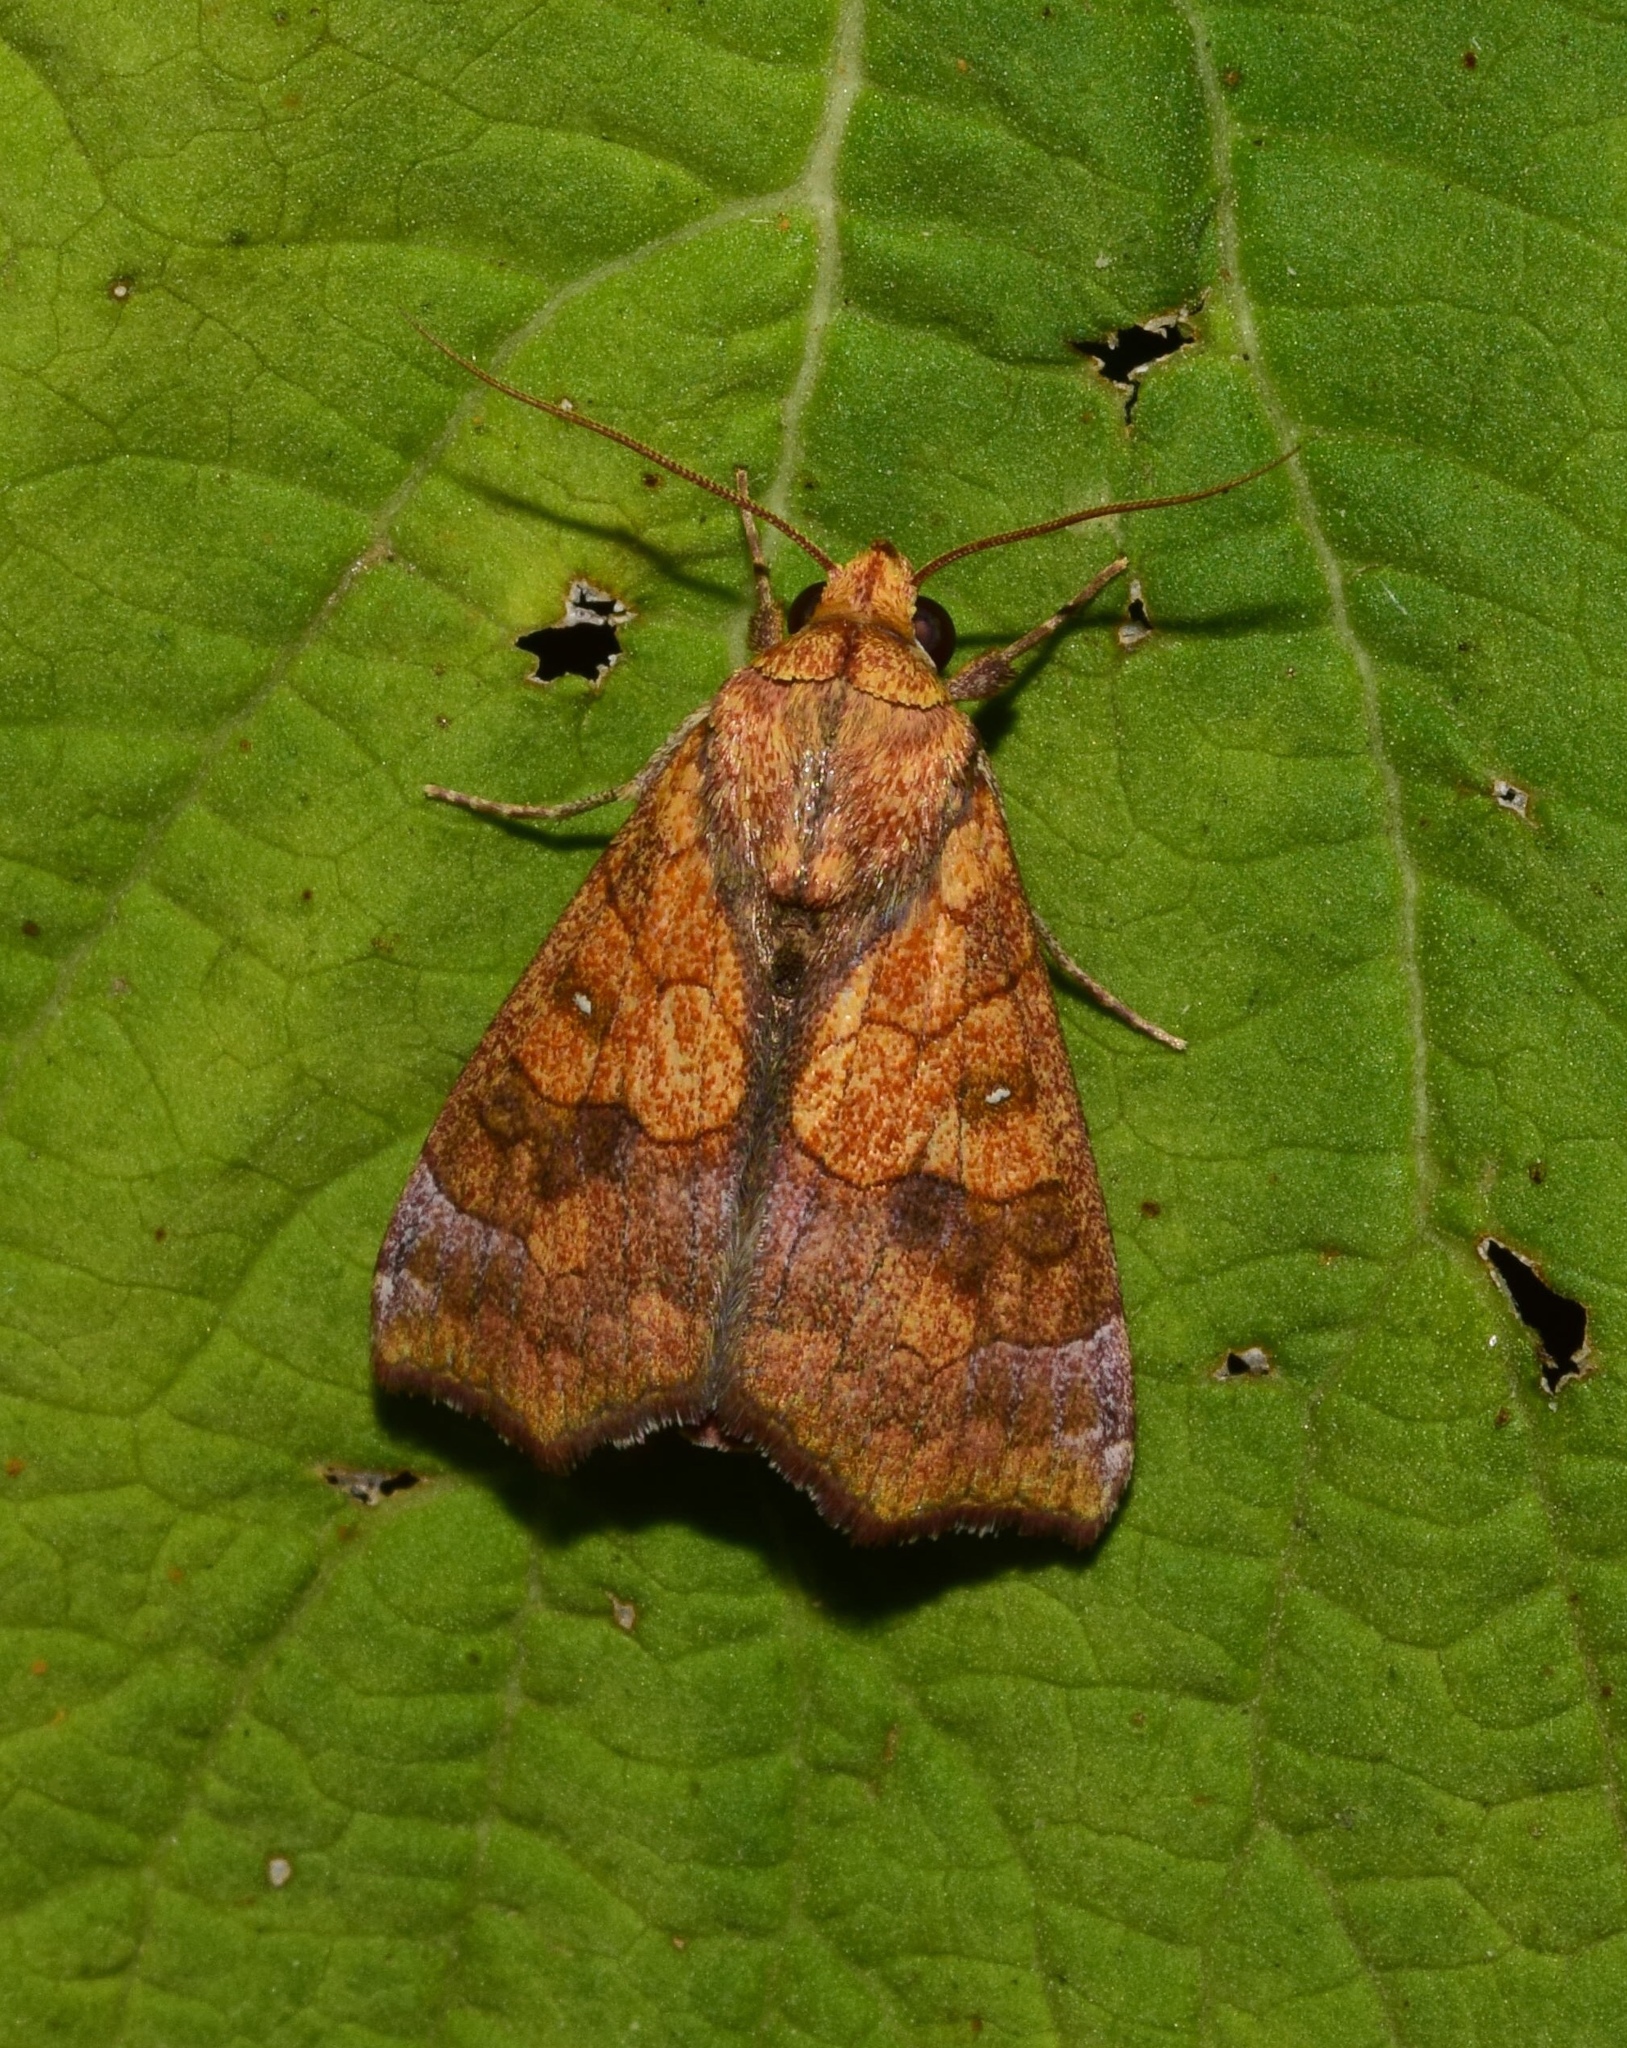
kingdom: Animalia
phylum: Arthropoda
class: Insecta
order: Lepidoptera
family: Erebidae
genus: Anomis
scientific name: Anomis flava
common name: Moth
